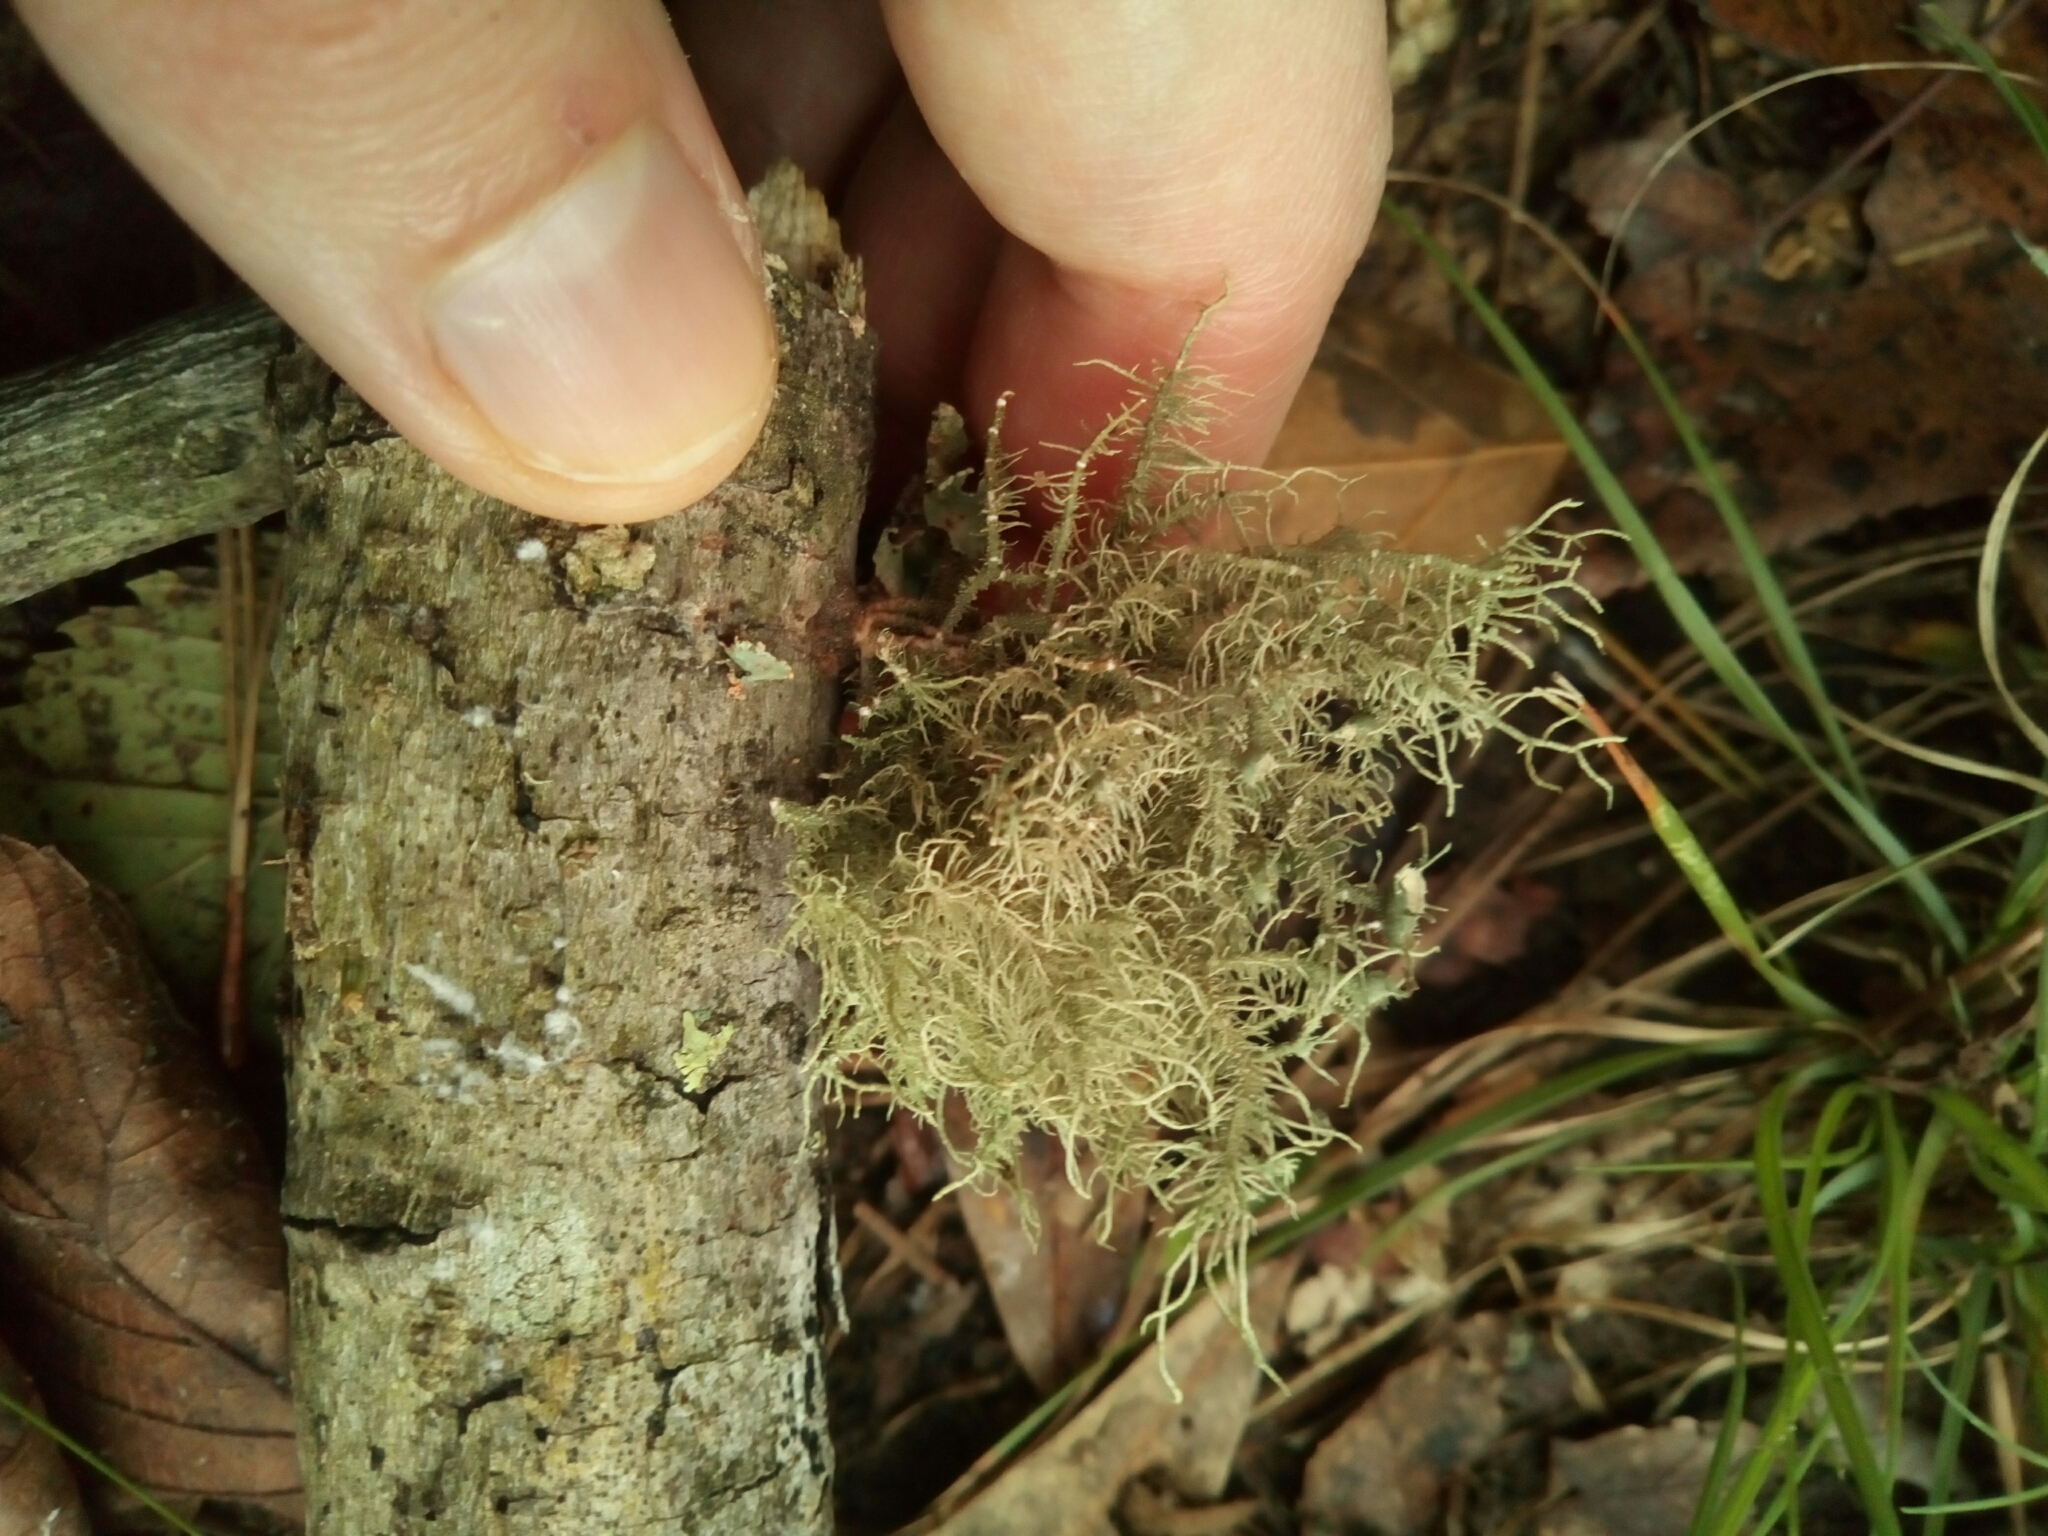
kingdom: Fungi
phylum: Ascomycota
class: Lecanoromycetes
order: Lecanorales
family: Parmeliaceae
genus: Usnea
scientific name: Usnea strigosa
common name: Bushy beard lichen
